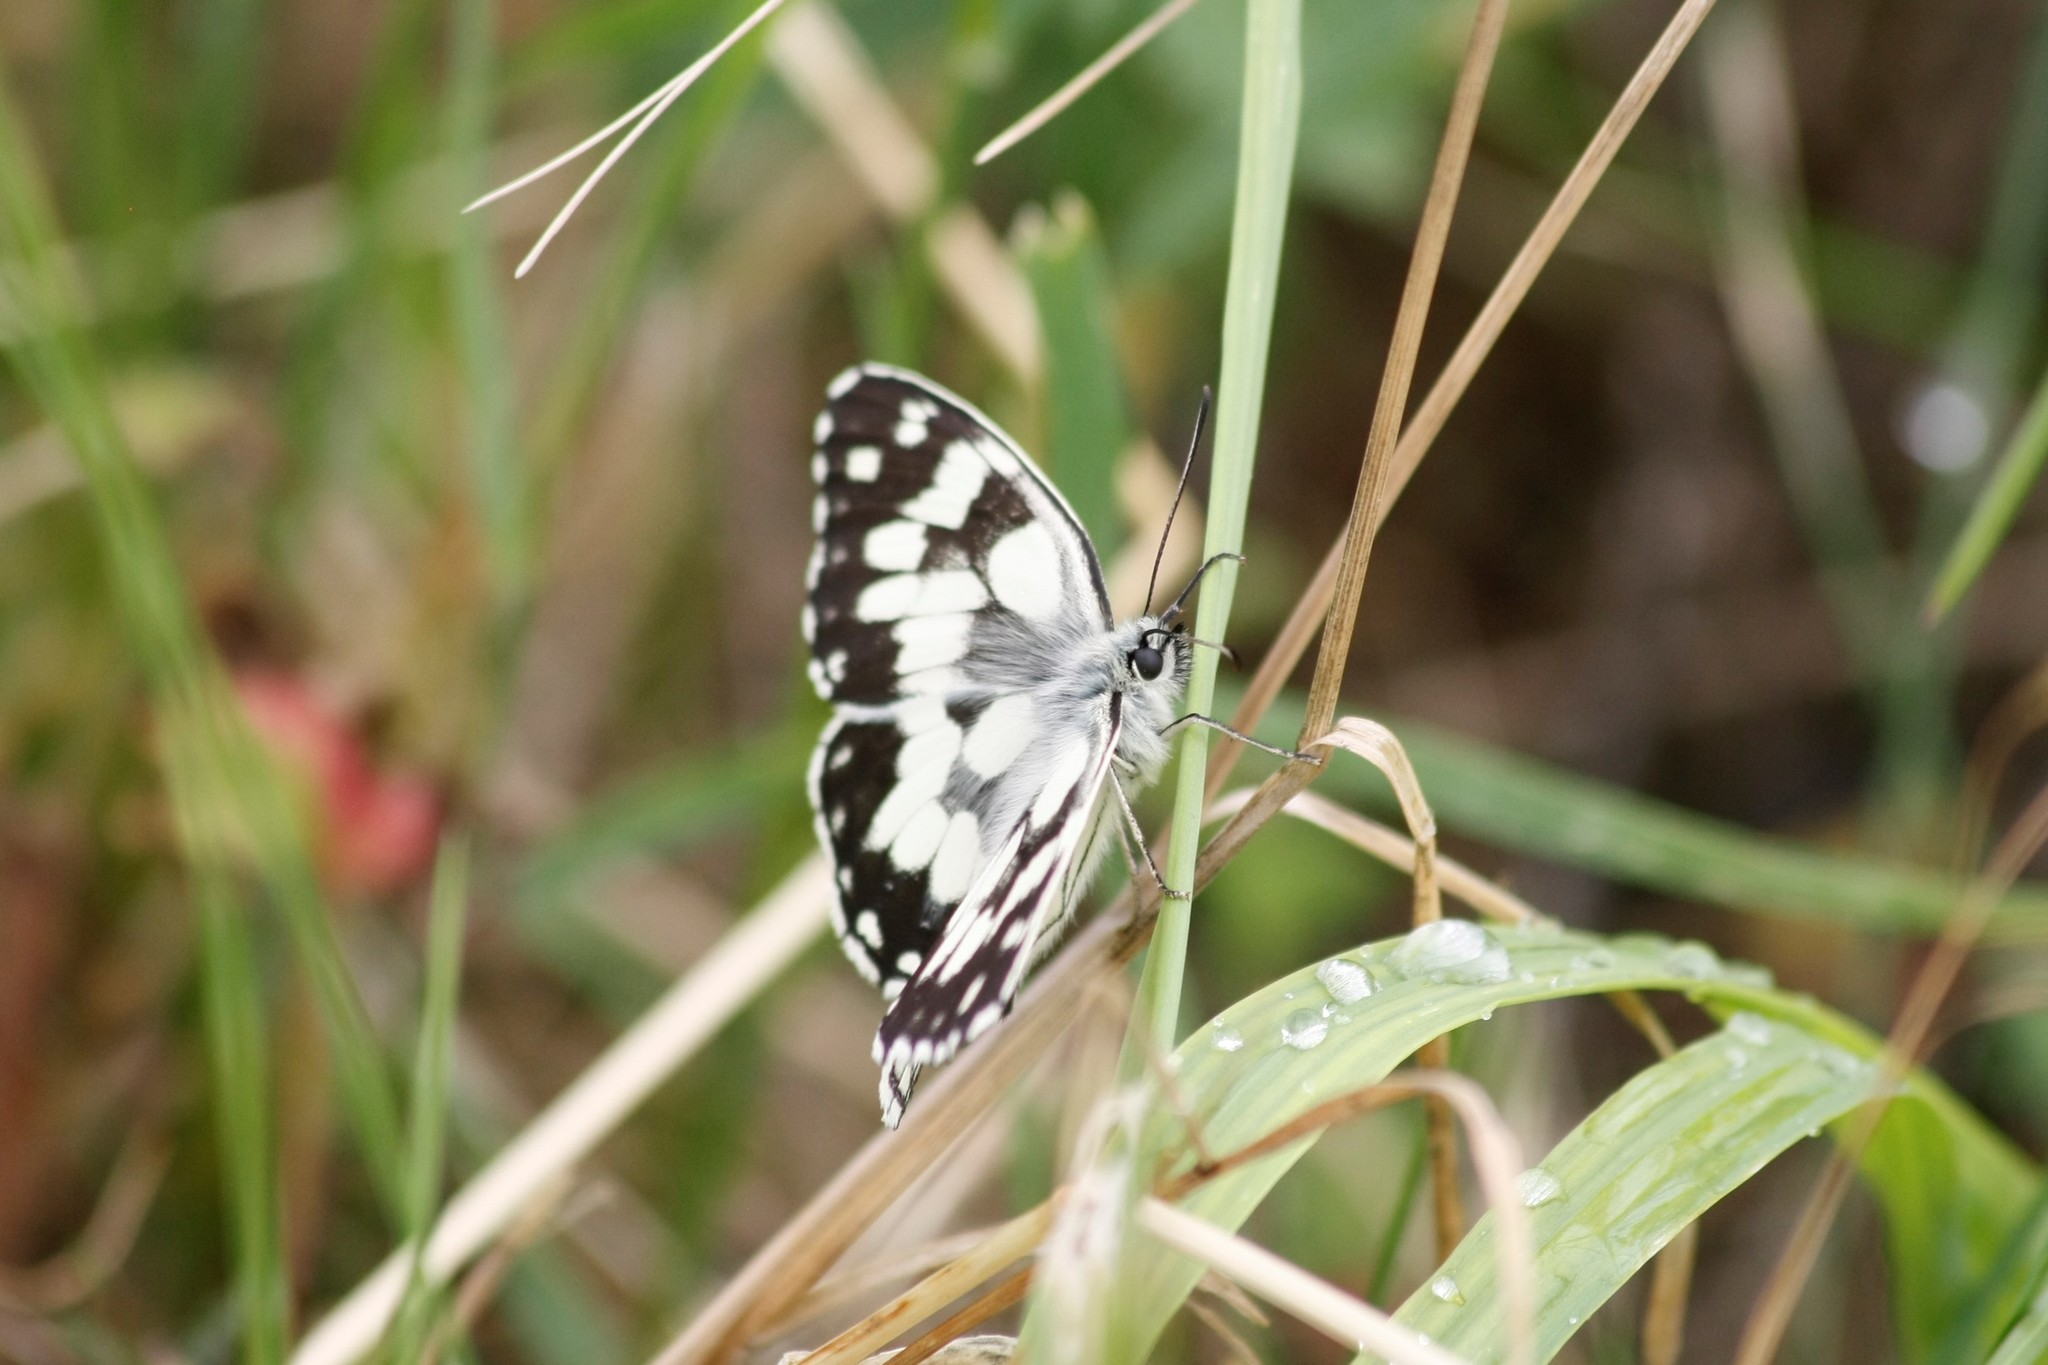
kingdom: Animalia
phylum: Arthropoda
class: Insecta
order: Lepidoptera
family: Nymphalidae
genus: Melanargia
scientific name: Melanargia galathea
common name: Marbled white
